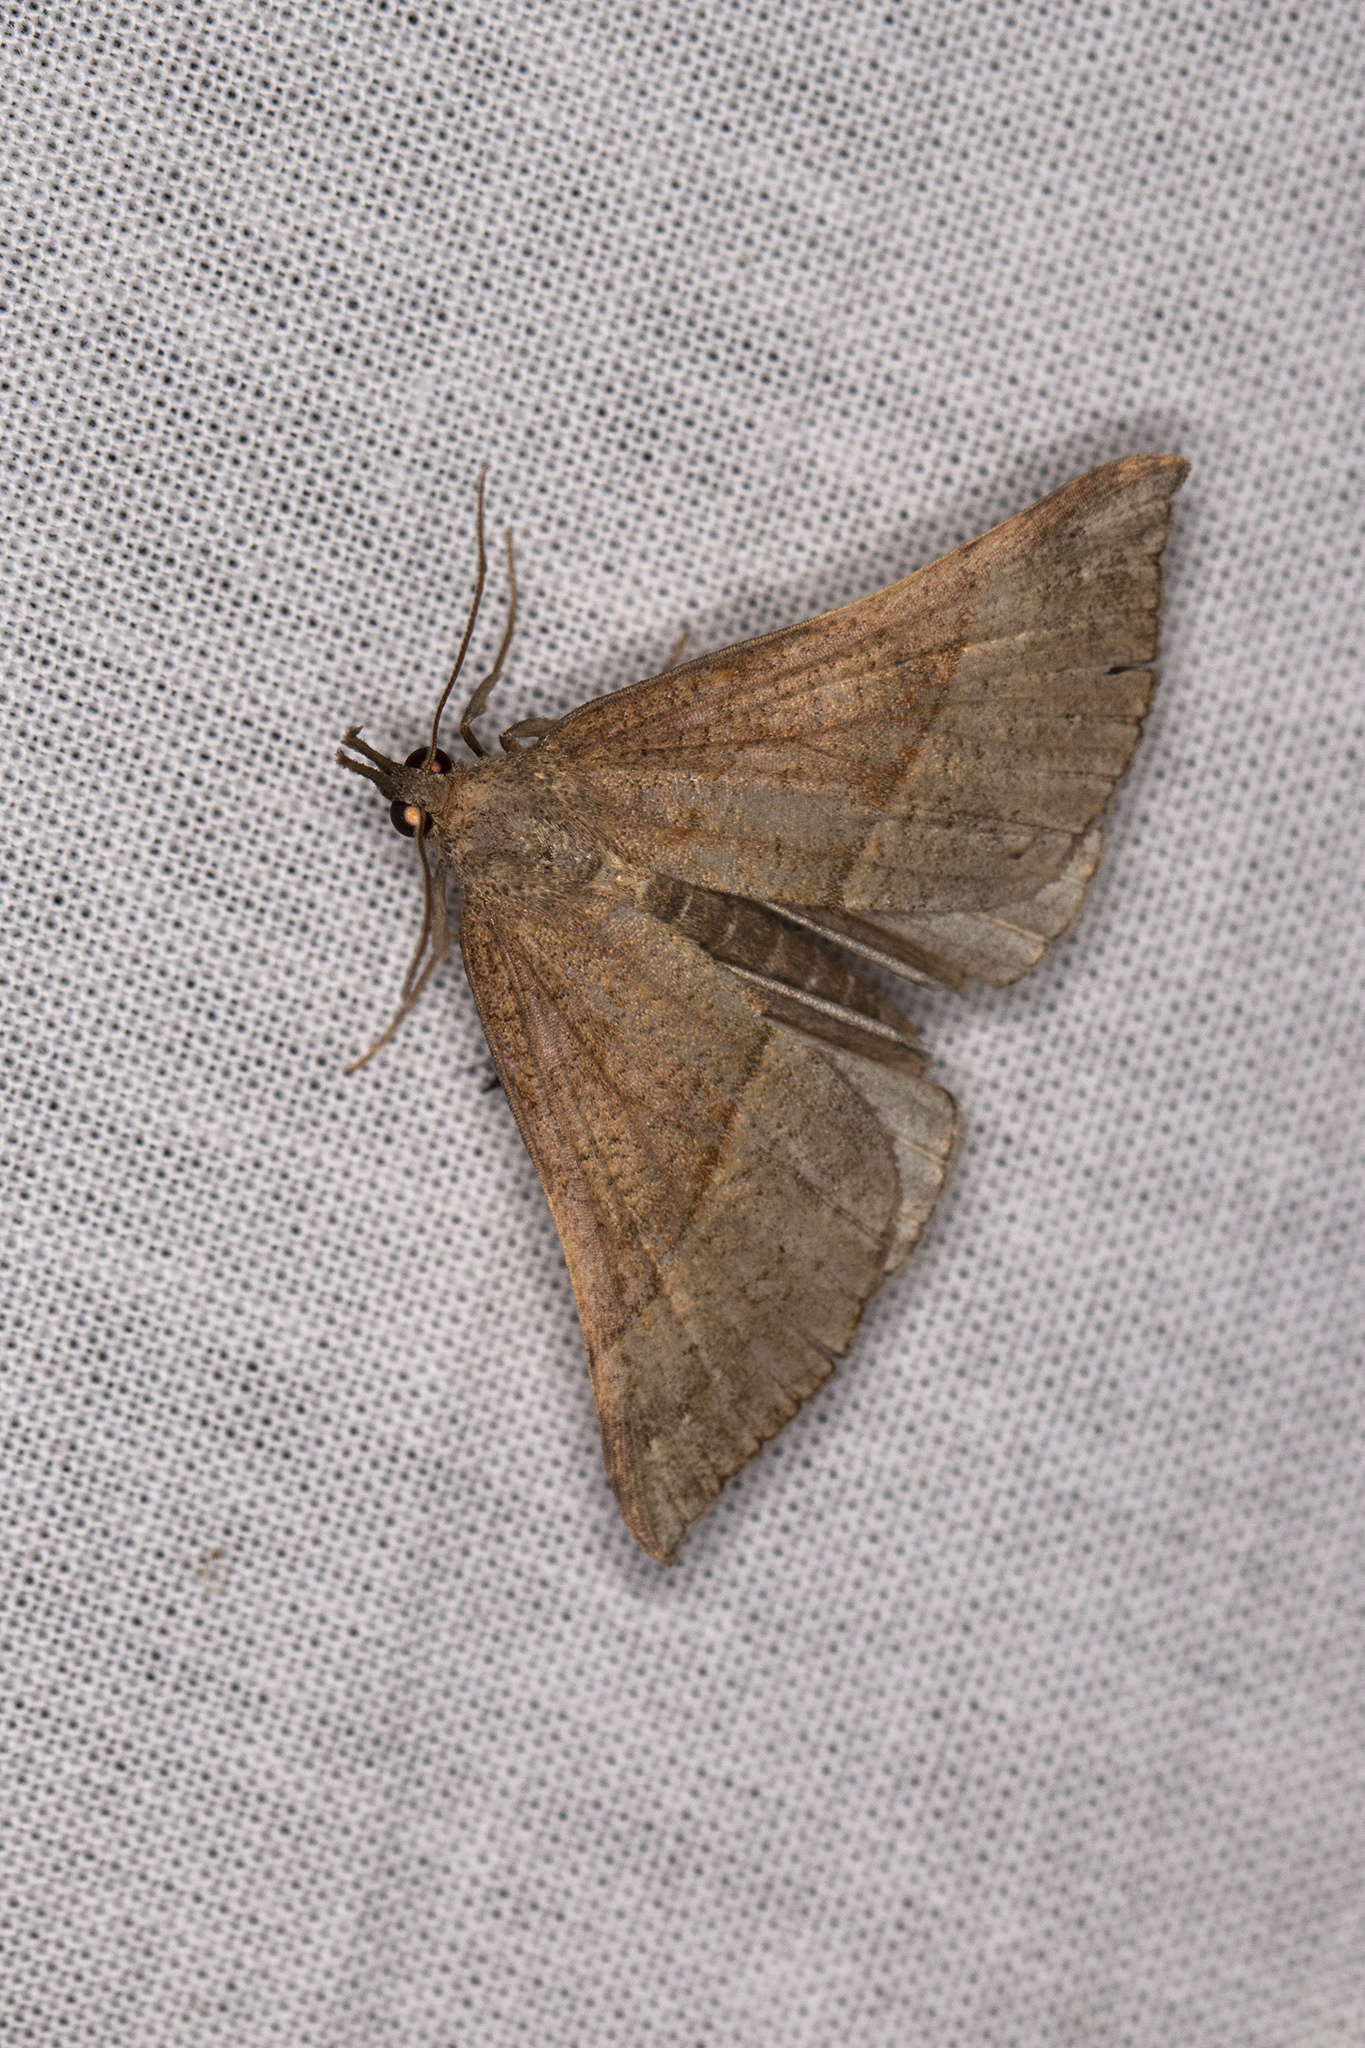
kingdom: Animalia
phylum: Arthropoda
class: Insecta
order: Lepidoptera
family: Erebidae
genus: Hypena
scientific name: Hypena proboscidalis
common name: Snout
